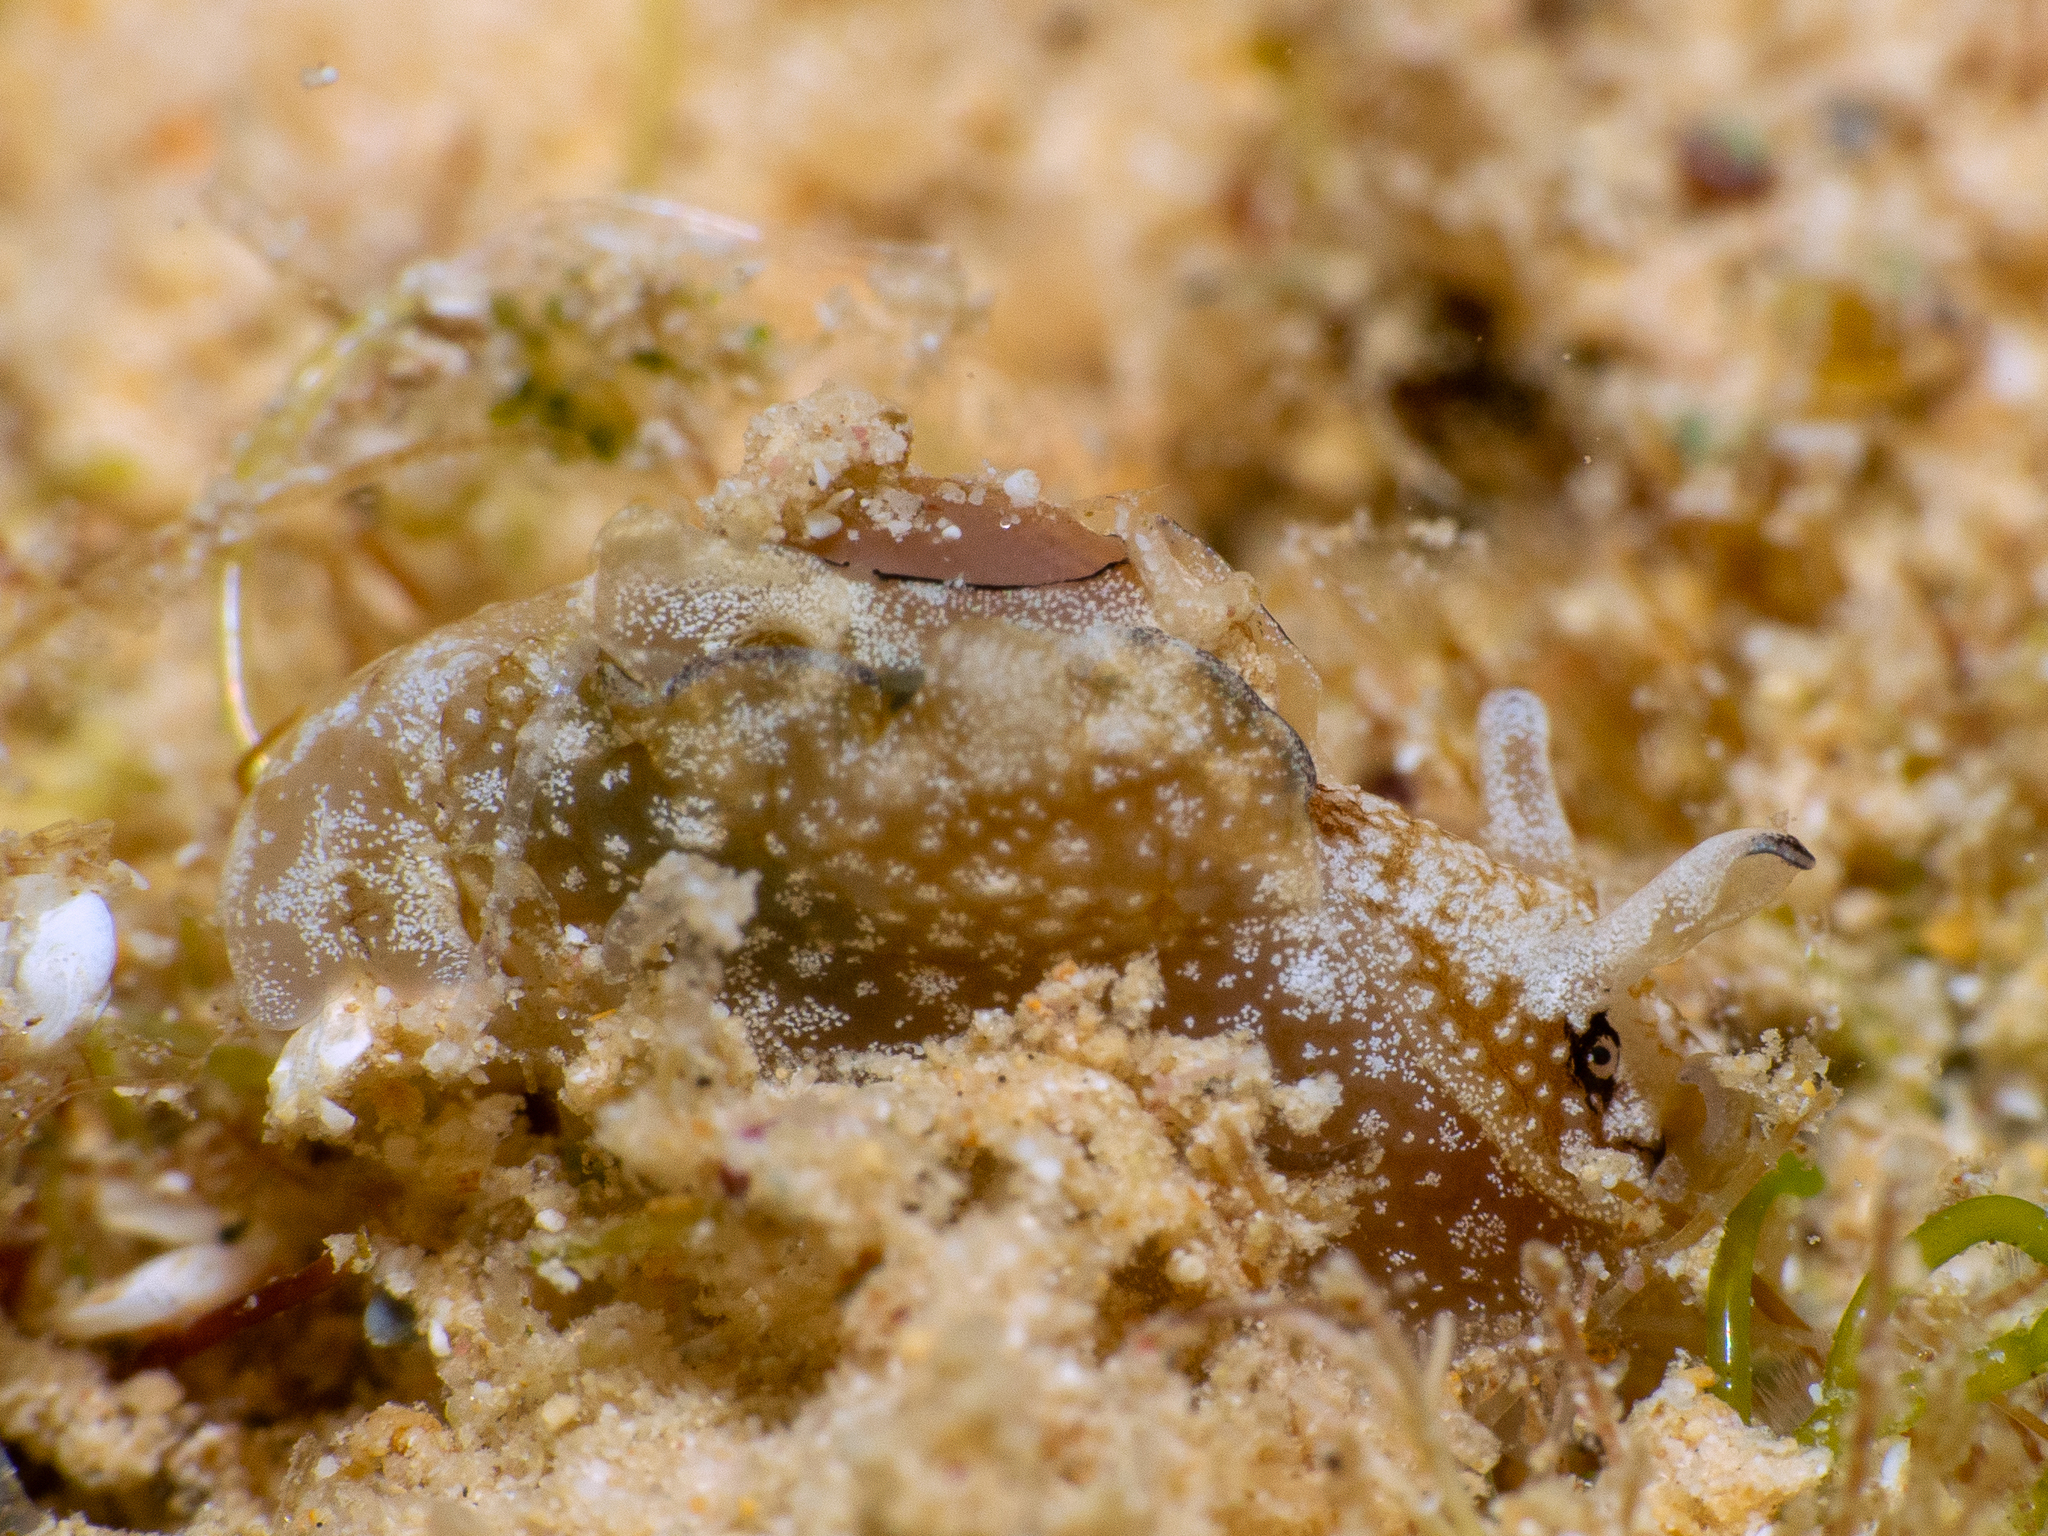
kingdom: Animalia
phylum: Mollusca
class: Gastropoda
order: Aplysiida
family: Aplysiidae
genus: Aplysia
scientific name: Aplysia parvula
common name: Dwarf sea hare
